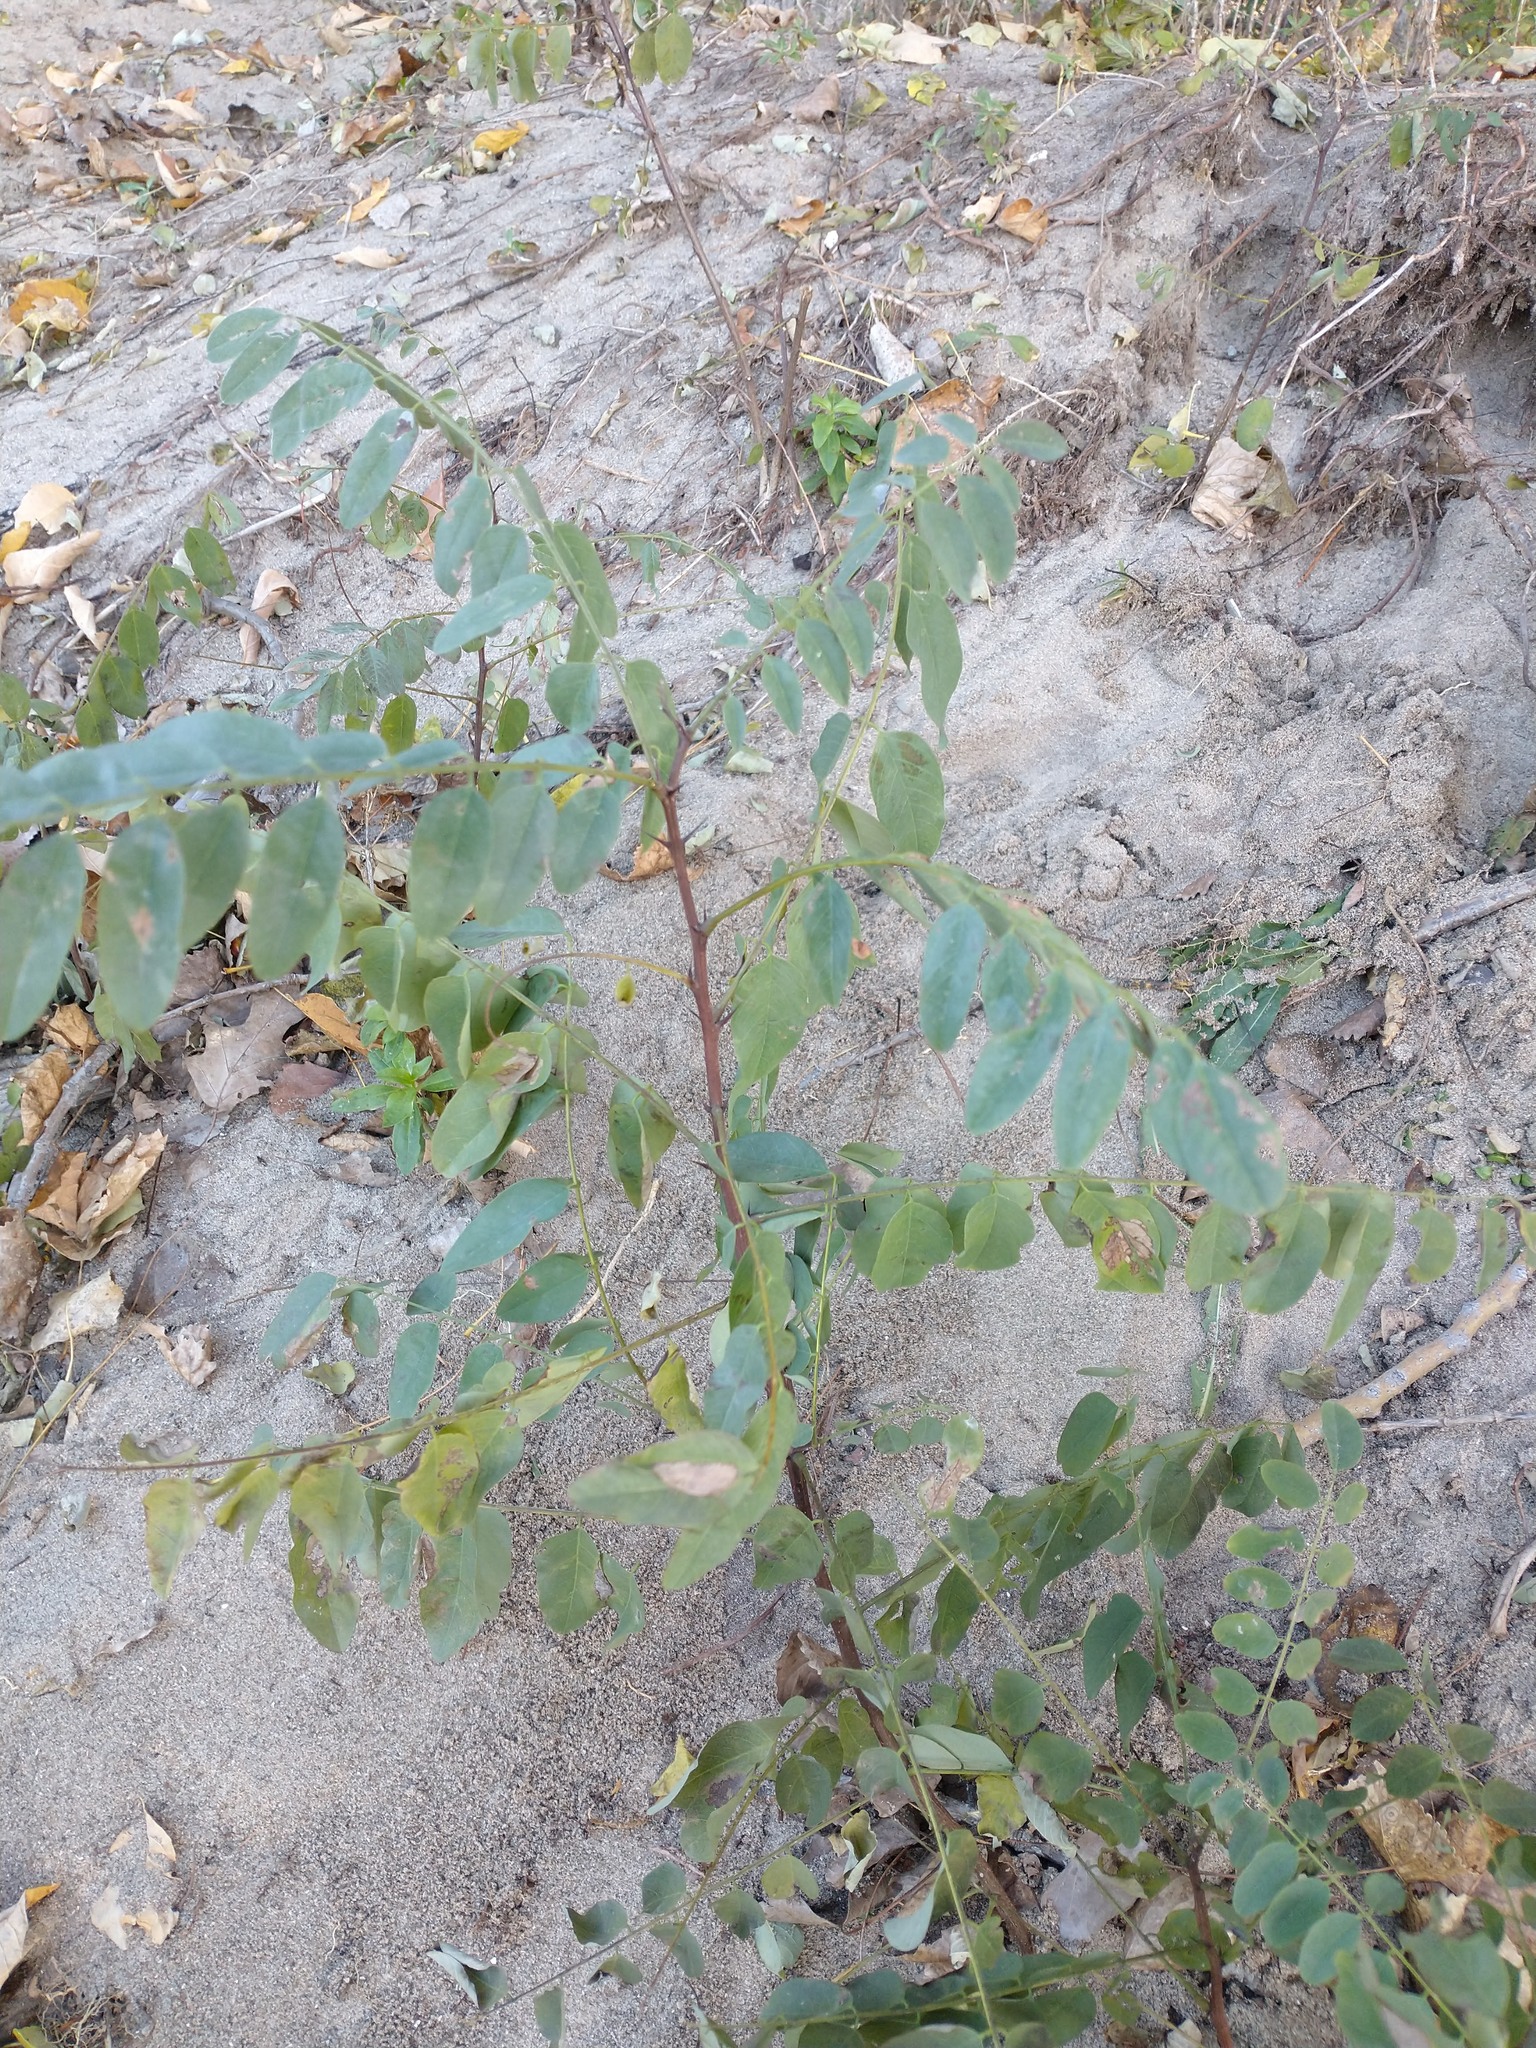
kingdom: Plantae
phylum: Tracheophyta
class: Magnoliopsida
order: Fabales
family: Fabaceae
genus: Robinia
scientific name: Robinia pseudoacacia
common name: Black locust
